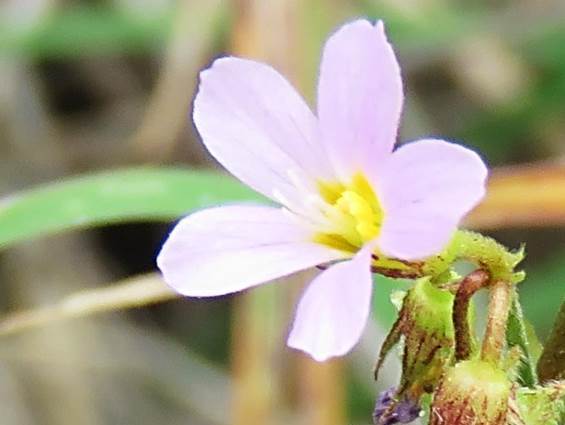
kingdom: Plantae
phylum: Tracheophyta
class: Magnoliopsida
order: Malvales
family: Malvaceae
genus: Melochia
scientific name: Melochia pyramidata
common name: Pyramidflower
